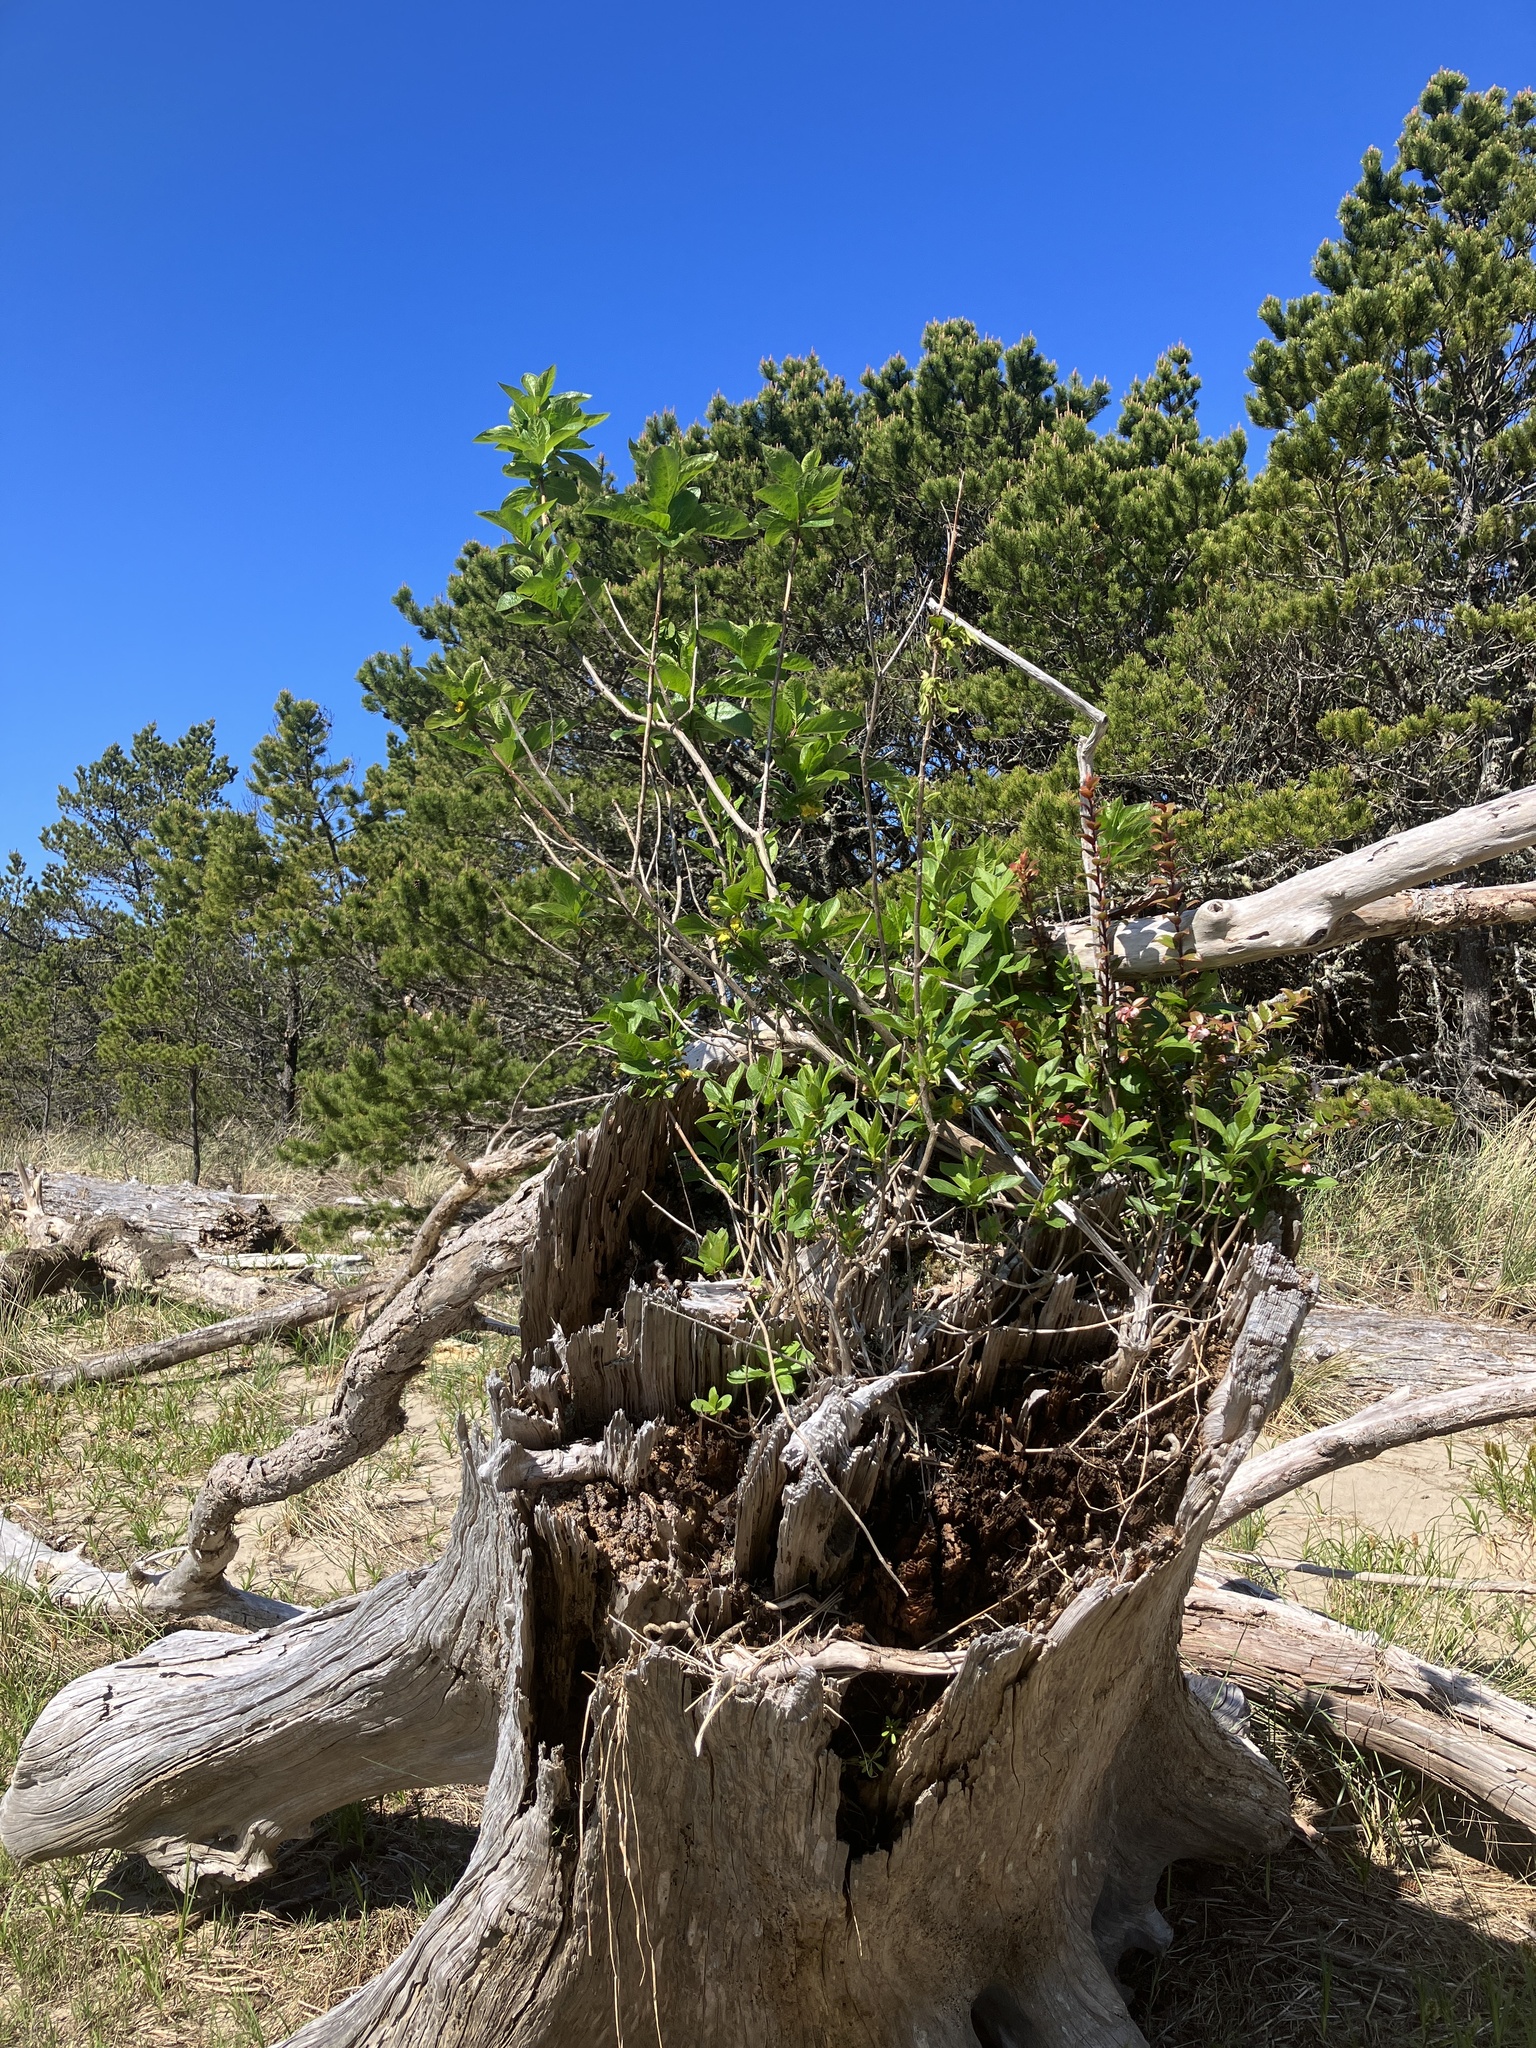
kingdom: Plantae
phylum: Tracheophyta
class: Magnoliopsida
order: Dipsacales
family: Caprifoliaceae
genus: Lonicera
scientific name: Lonicera involucrata
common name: Californian honeysuckle
